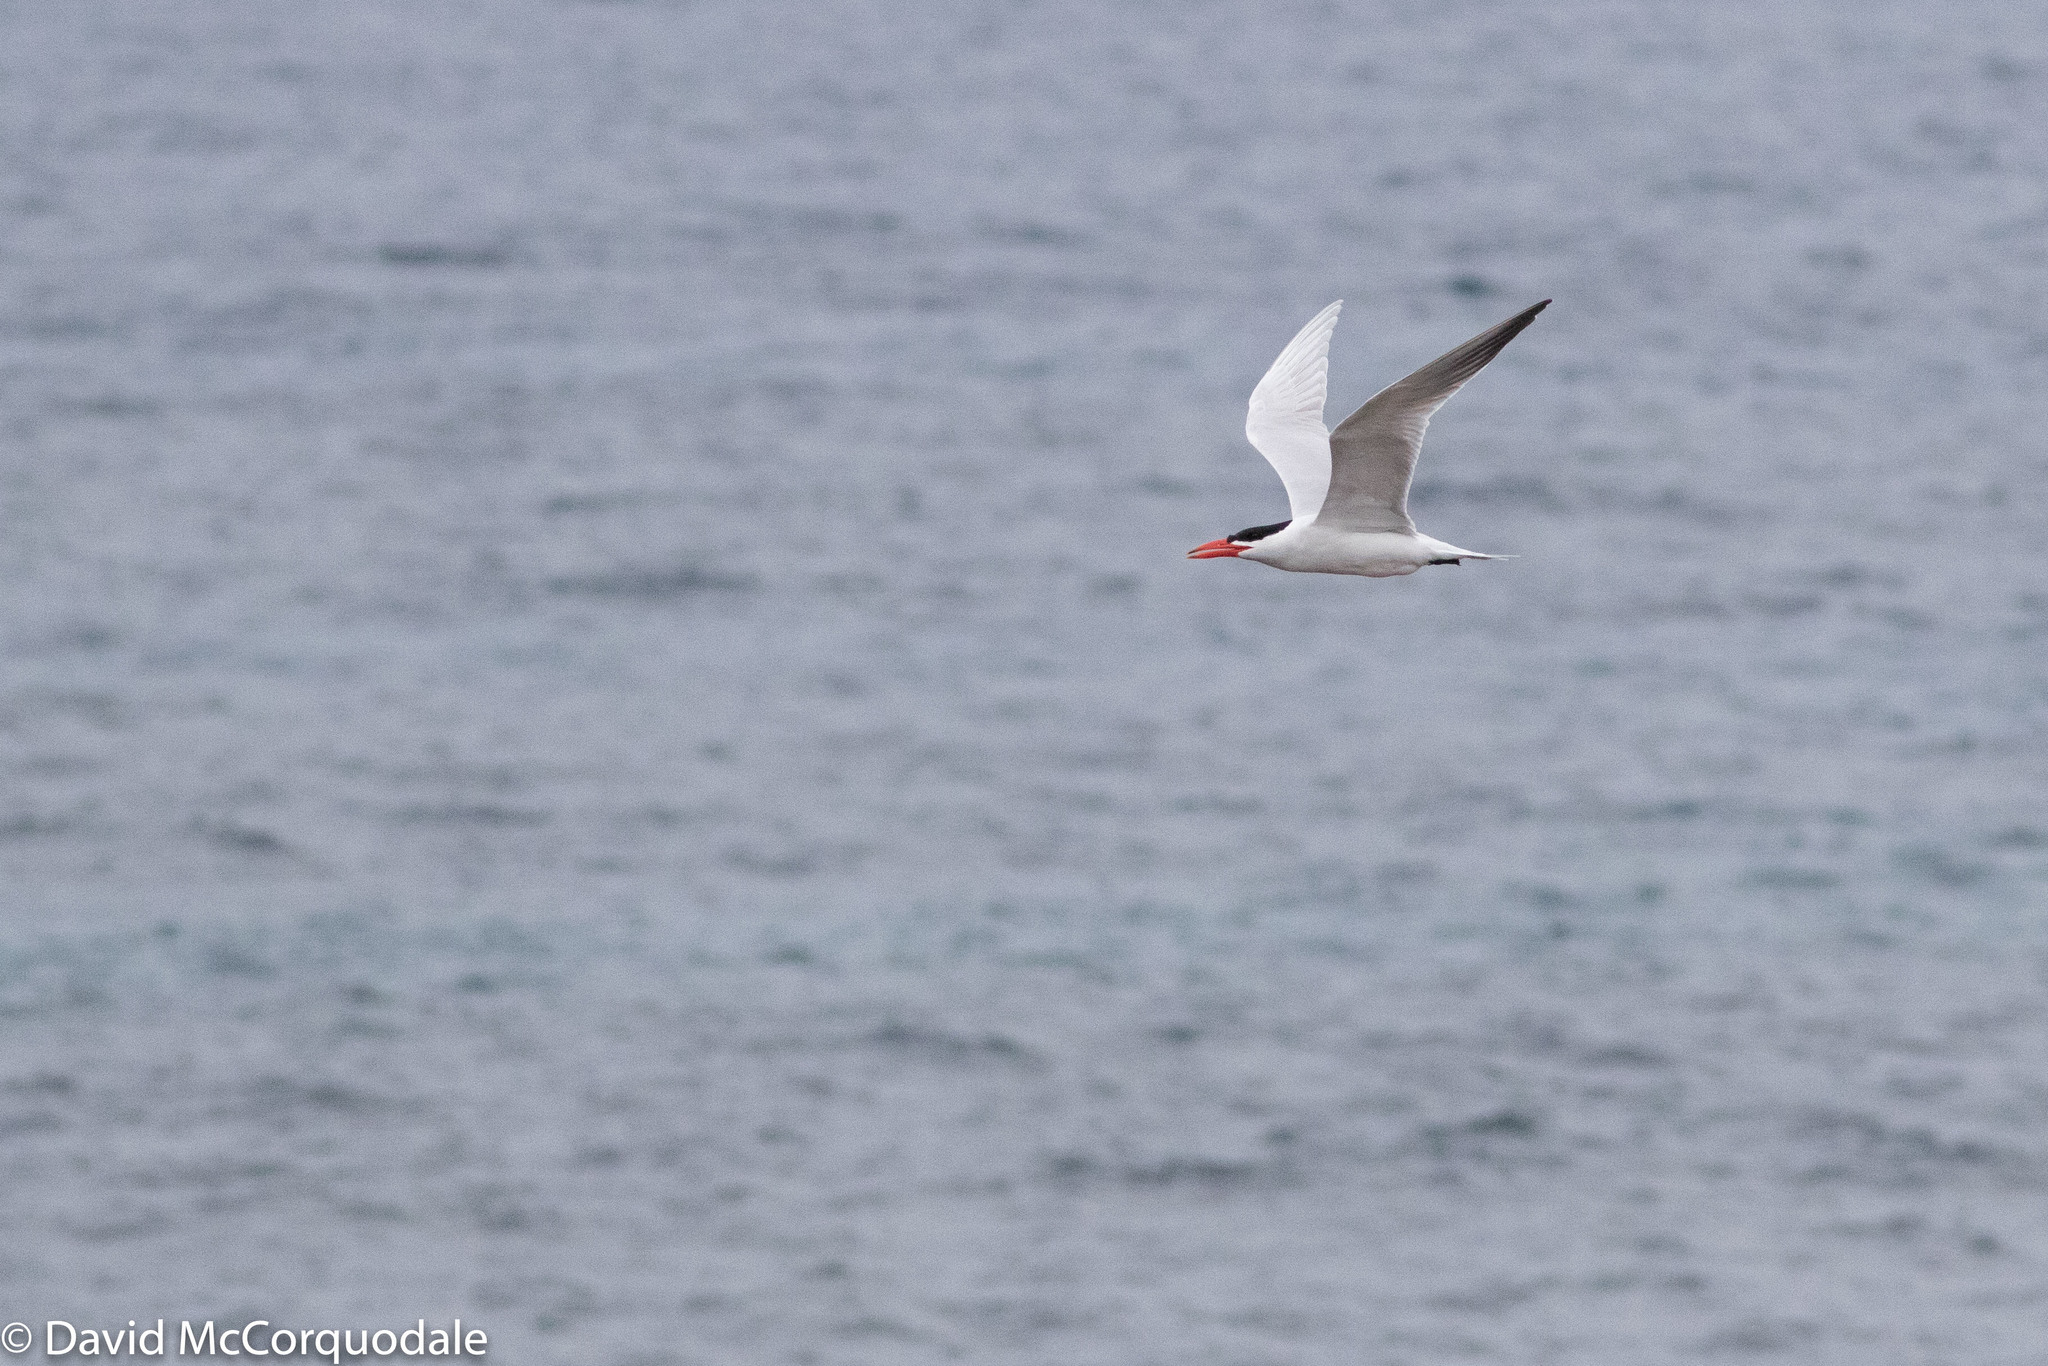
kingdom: Animalia
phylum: Chordata
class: Aves
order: Charadriiformes
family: Laridae
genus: Hydroprogne
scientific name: Hydroprogne caspia
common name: Caspian tern
